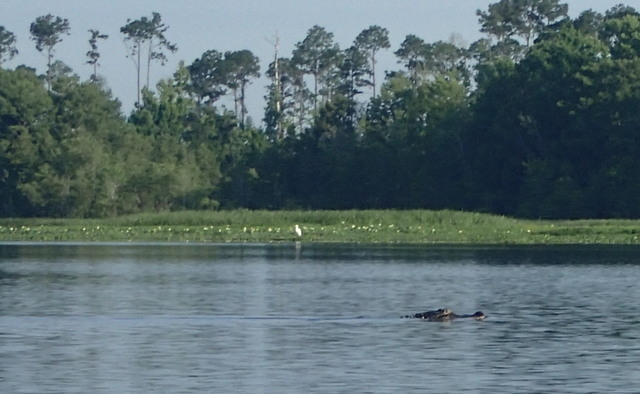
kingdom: Animalia
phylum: Chordata
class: Crocodylia
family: Alligatoridae
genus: Alligator
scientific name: Alligator mississippiensis
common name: American alligator
